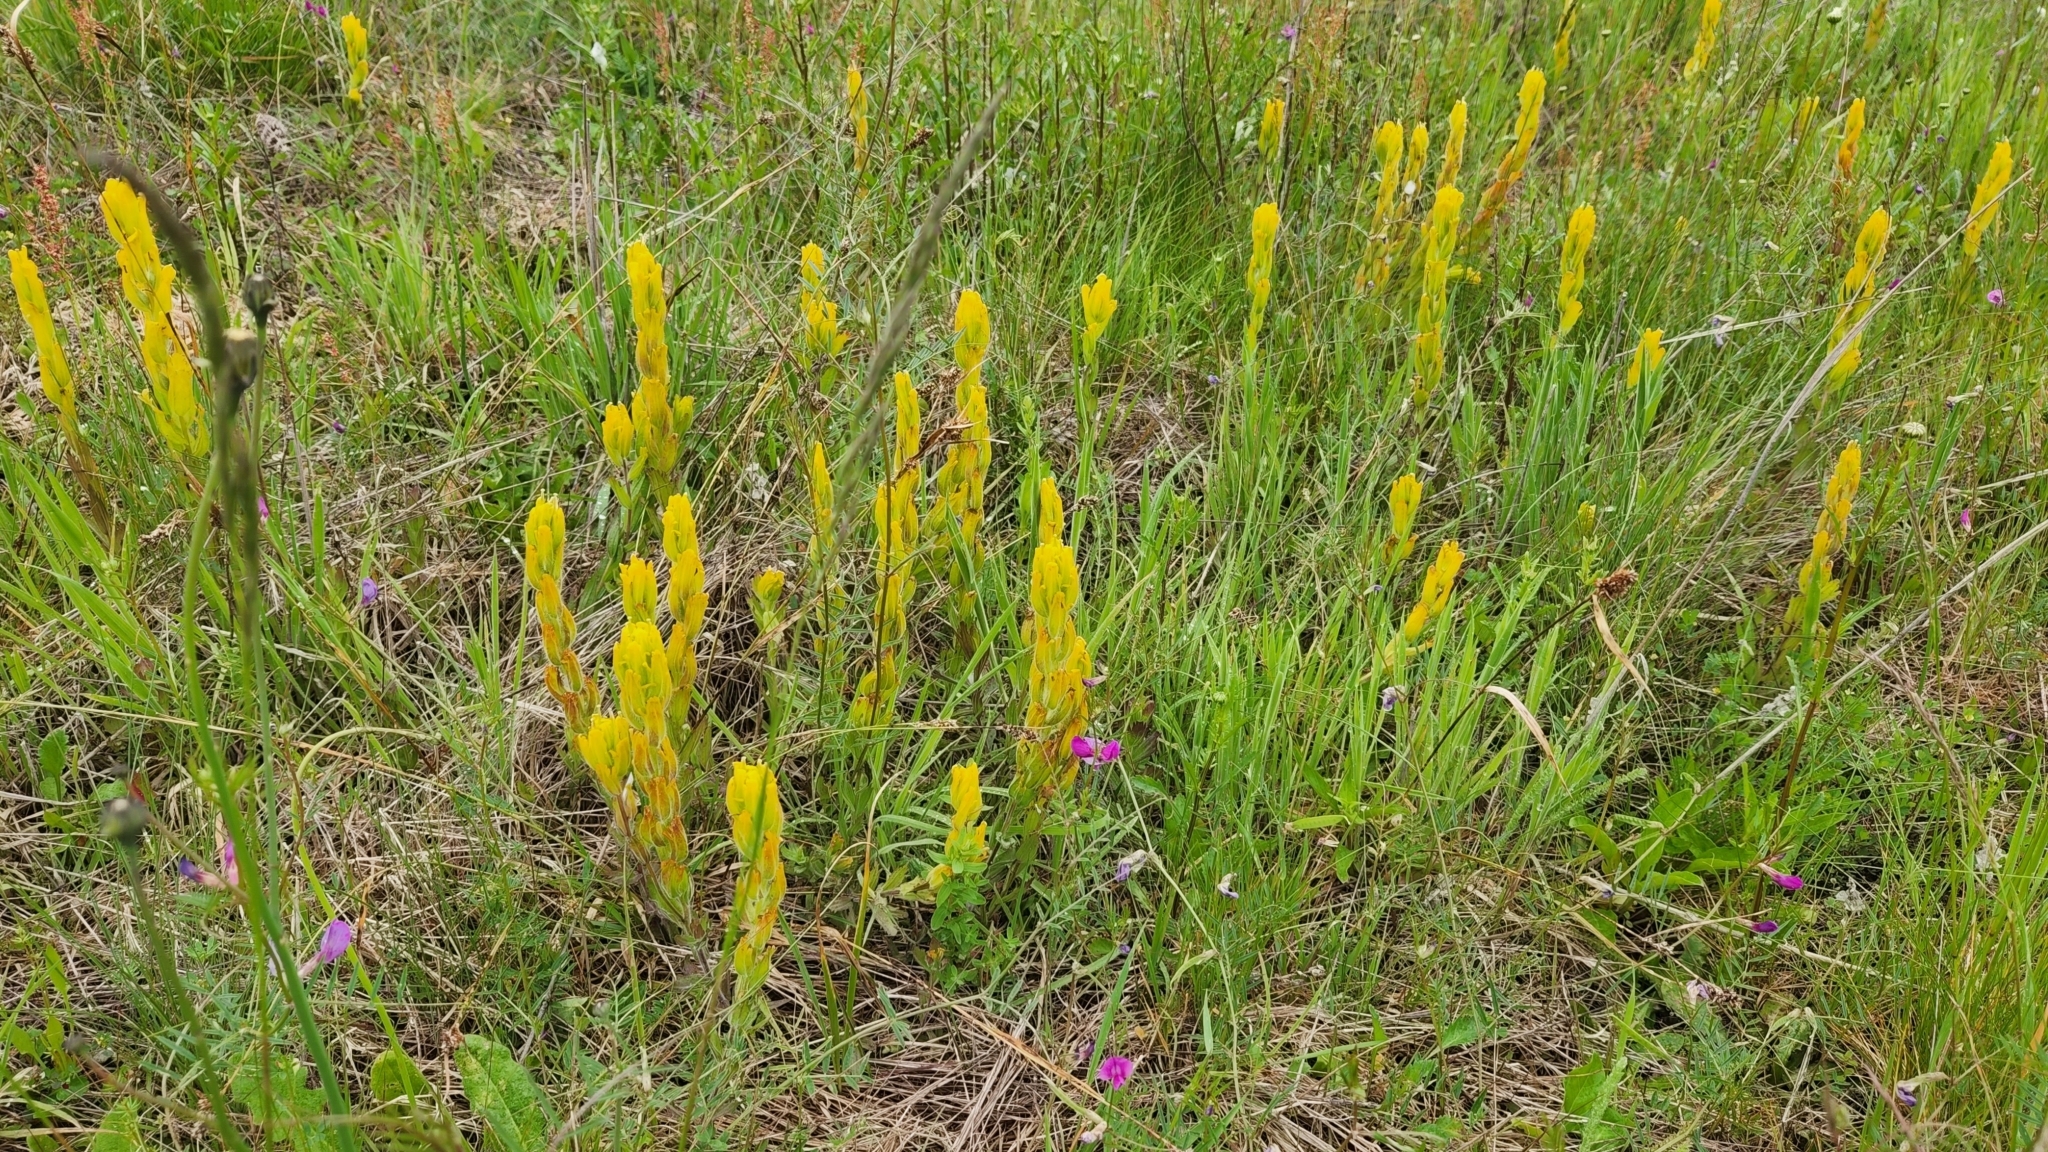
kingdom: Plantae
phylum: Tracheophyta
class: Magnoliopsida
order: Lamiales
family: Orobanchaceae
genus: Castilleja
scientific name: Castilleja levisecta
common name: Golden paintbrush
